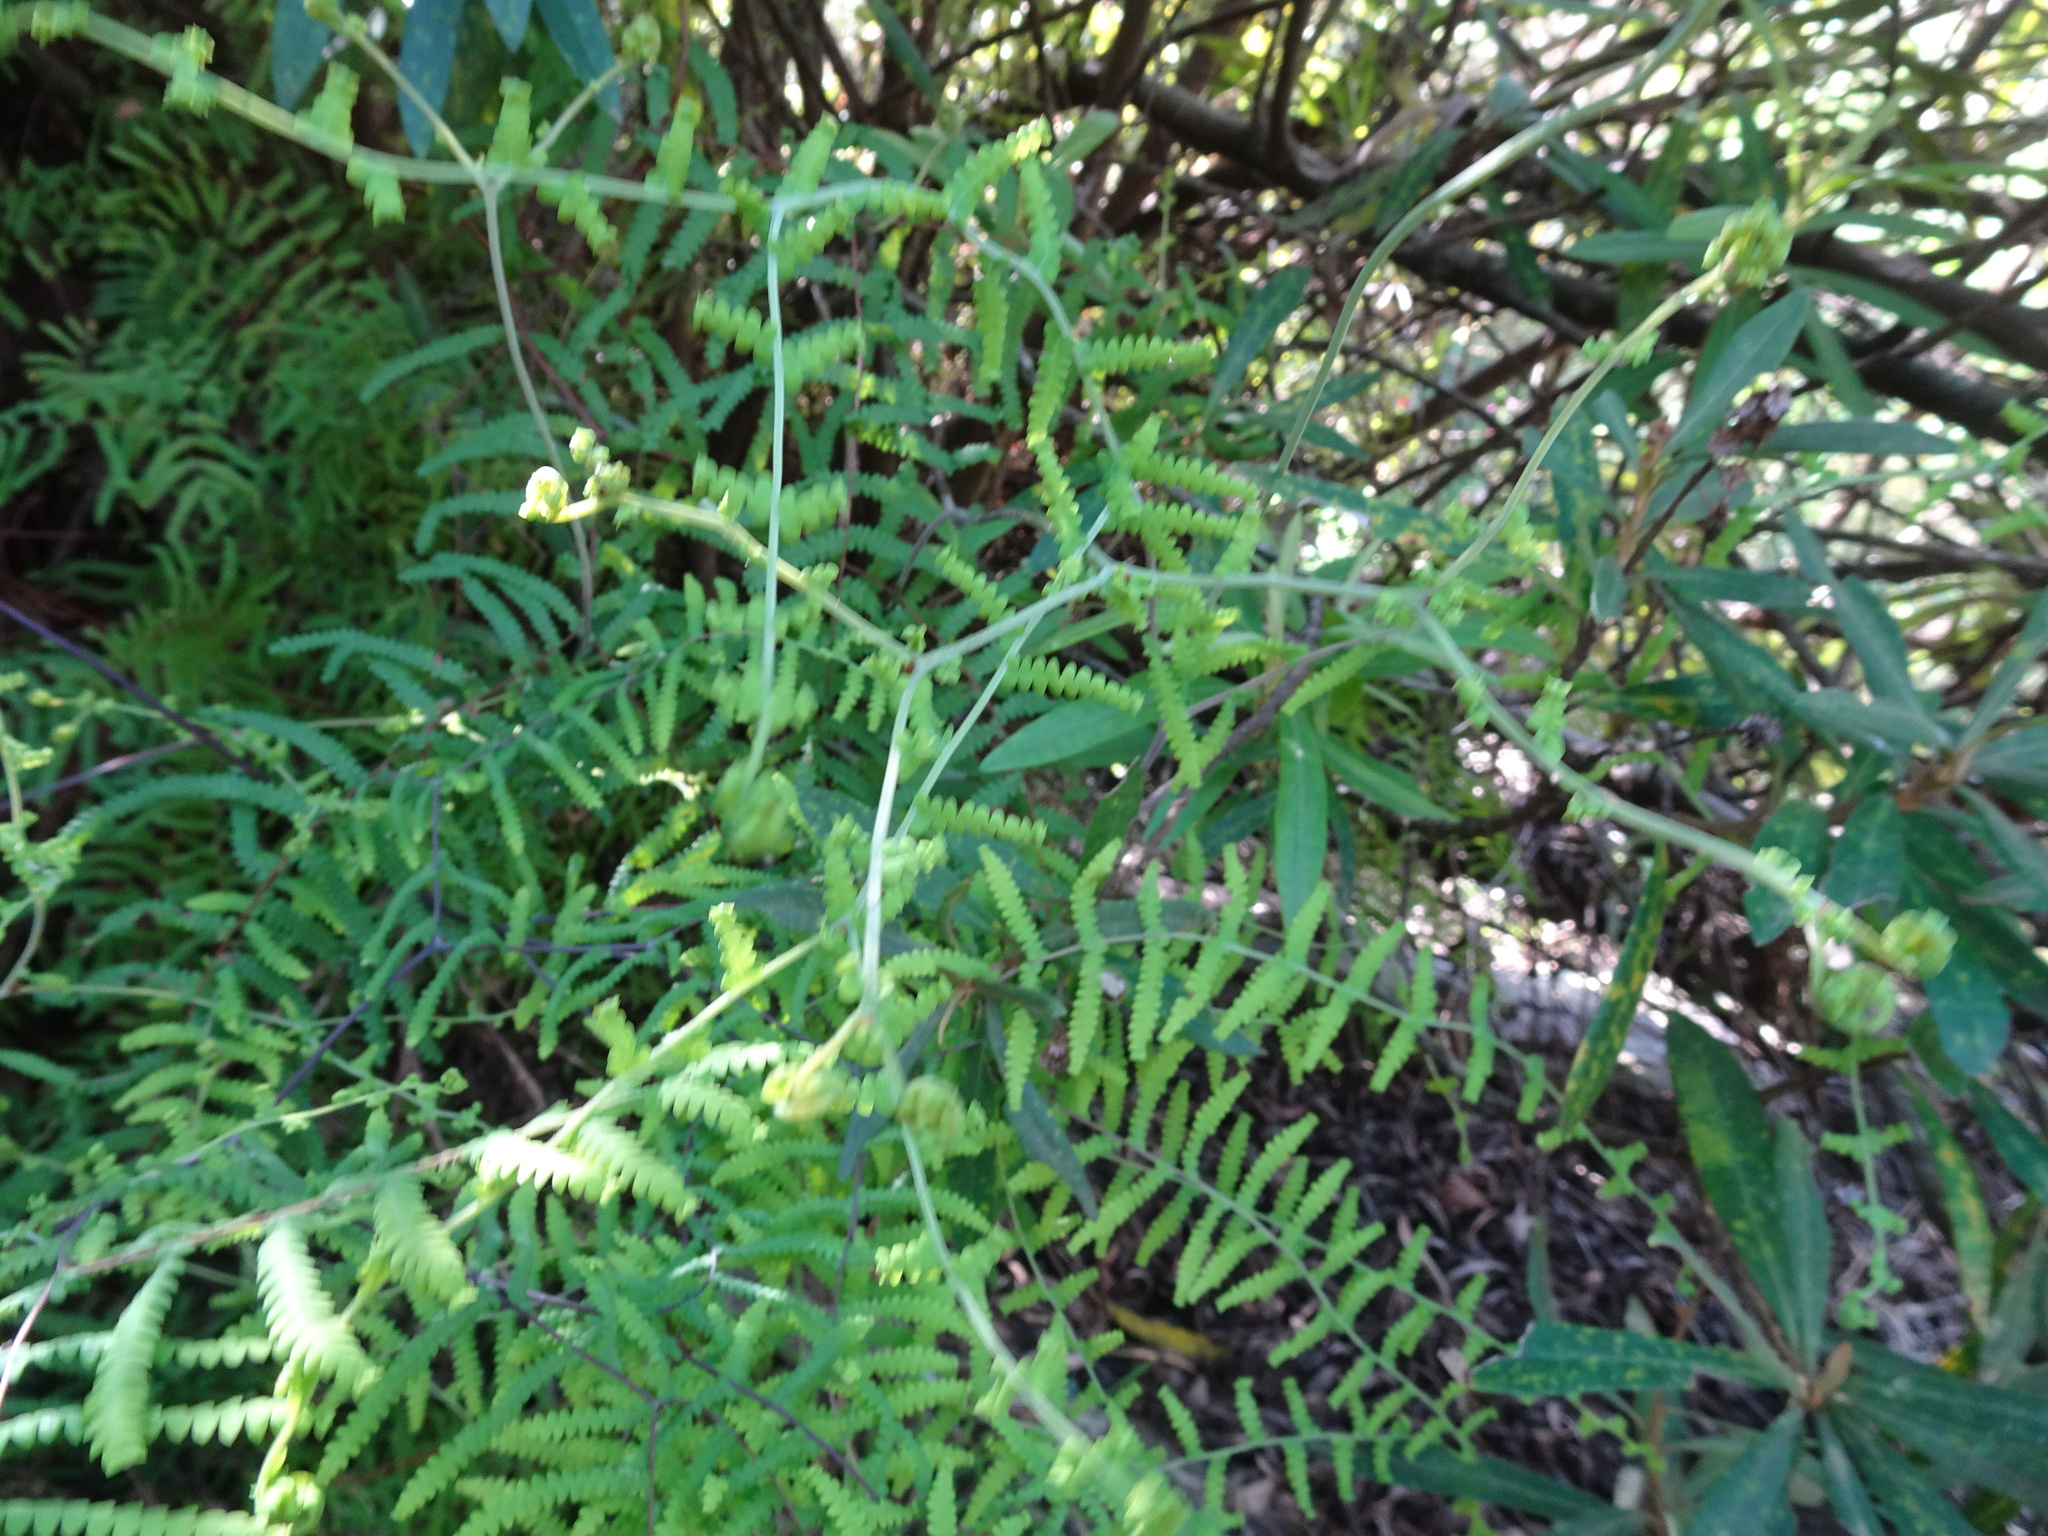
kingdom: Plantae
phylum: Tracheophyta
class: Polypodiopsida
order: Gleicheniales
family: Gleicheniaceae
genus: Gleichenia
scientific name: Gleichenia polypodioides
